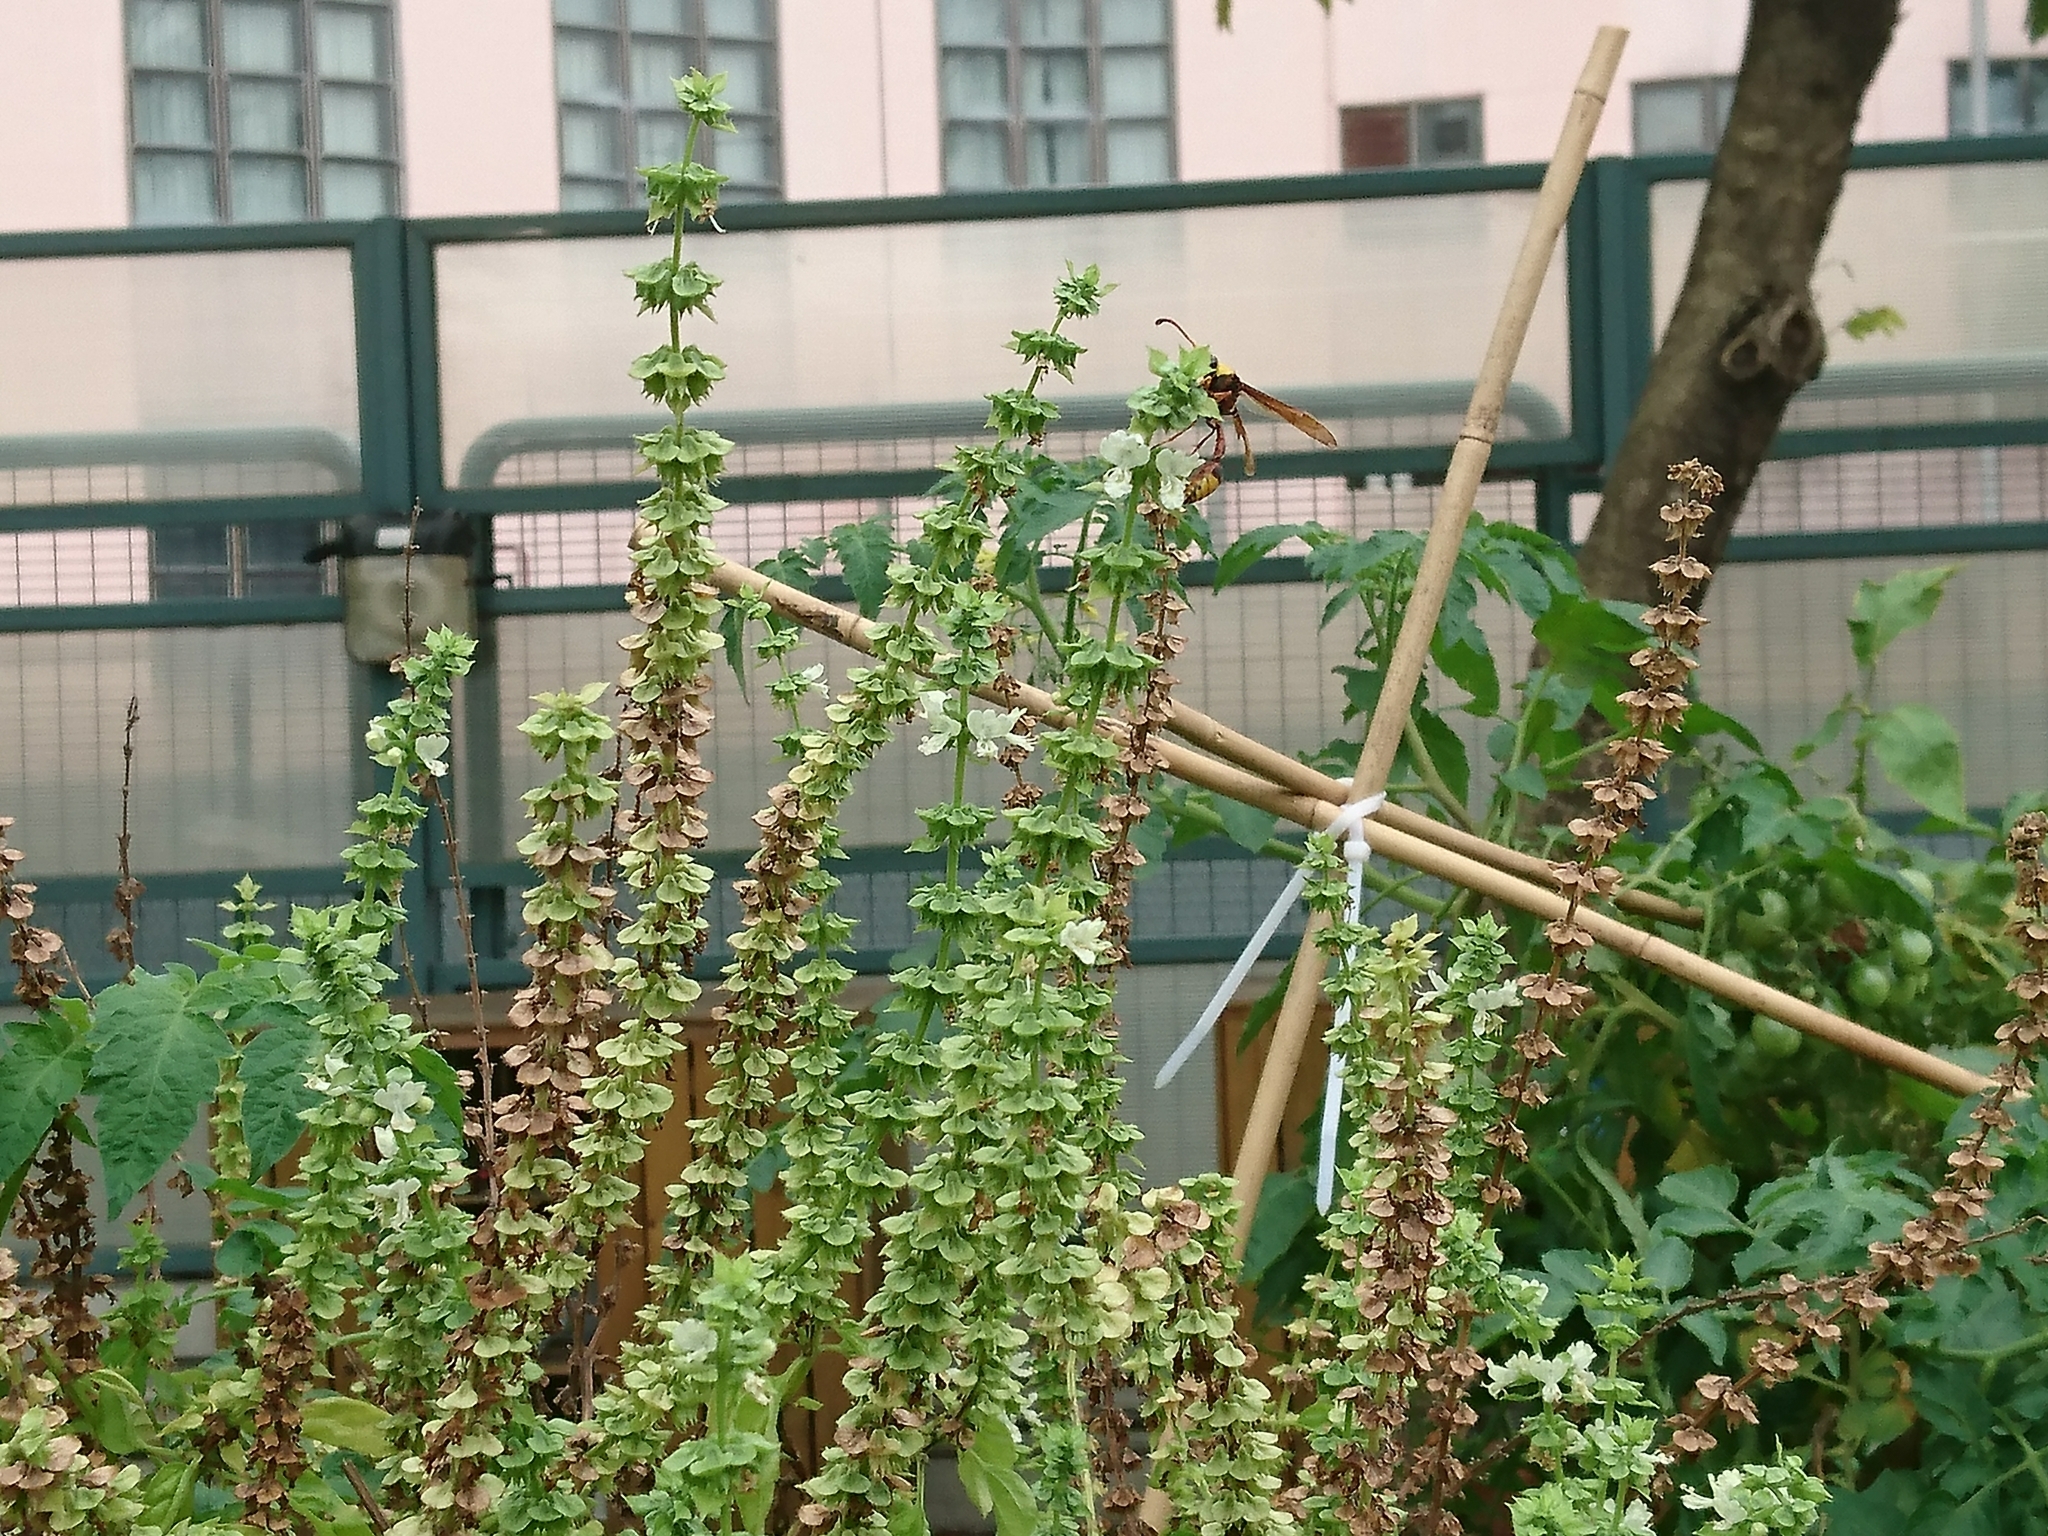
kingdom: Animalia
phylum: Arthropoda
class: Insecta
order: Hymenoptera
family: Eumenidae
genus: Delta
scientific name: Delta pyriforme
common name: Wasp
